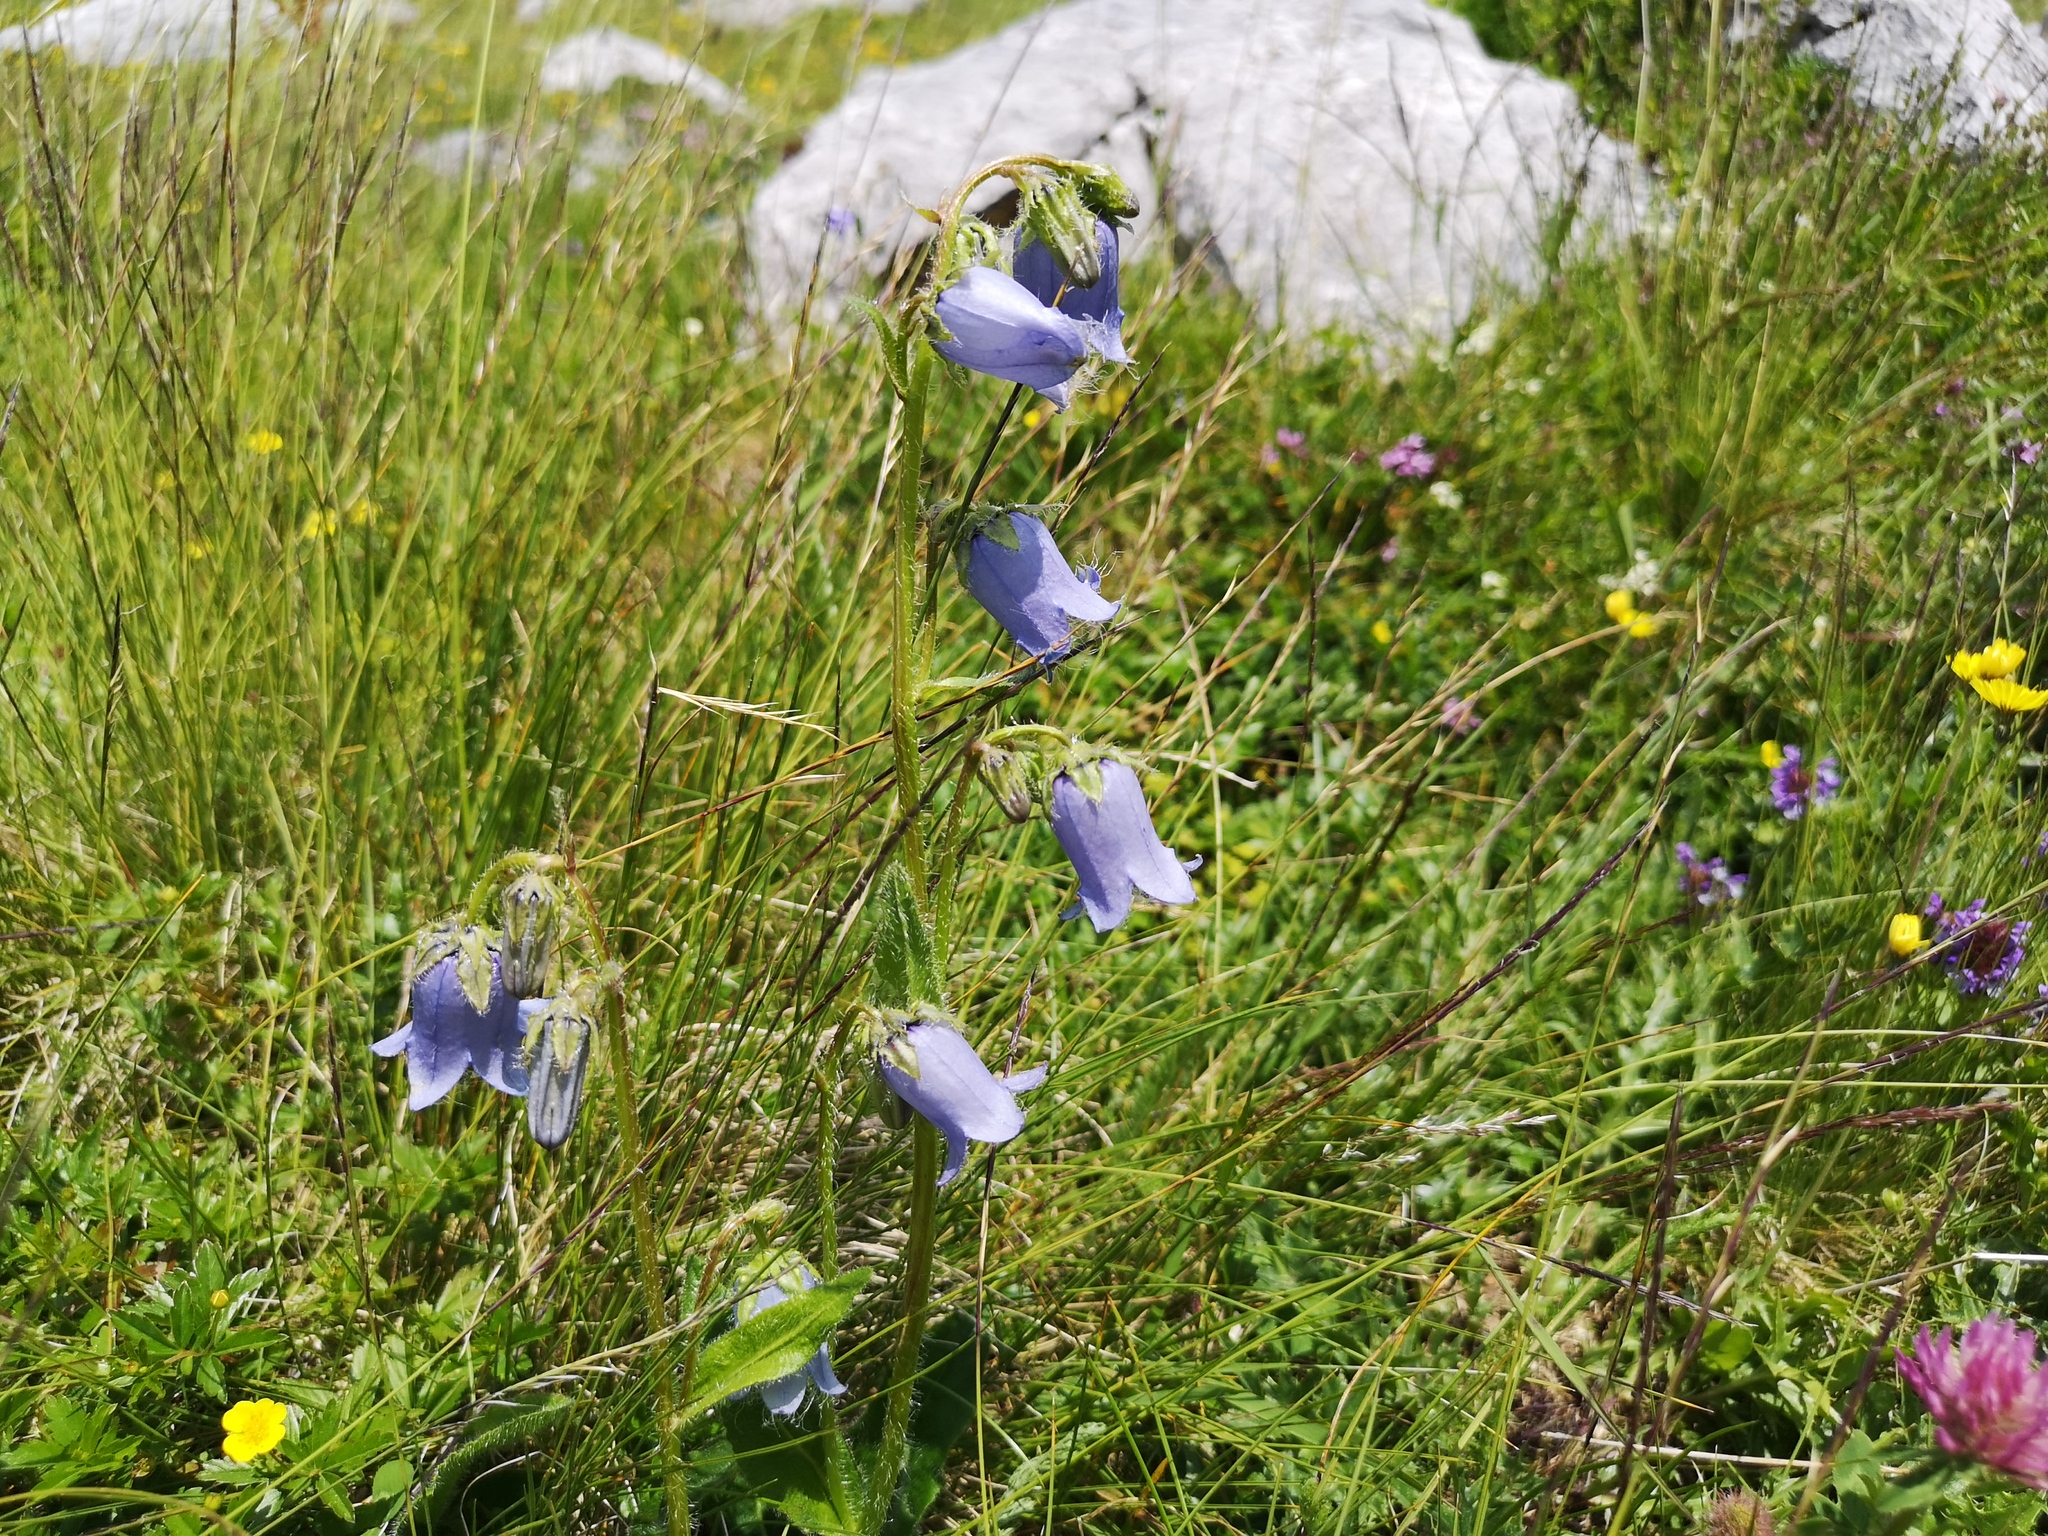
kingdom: Plantae
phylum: Tracheophyta
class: Magnoliopsida
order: Asterales
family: Campanulaceae
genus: Campanula
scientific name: Campanula barbata
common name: Bearded bellflower
